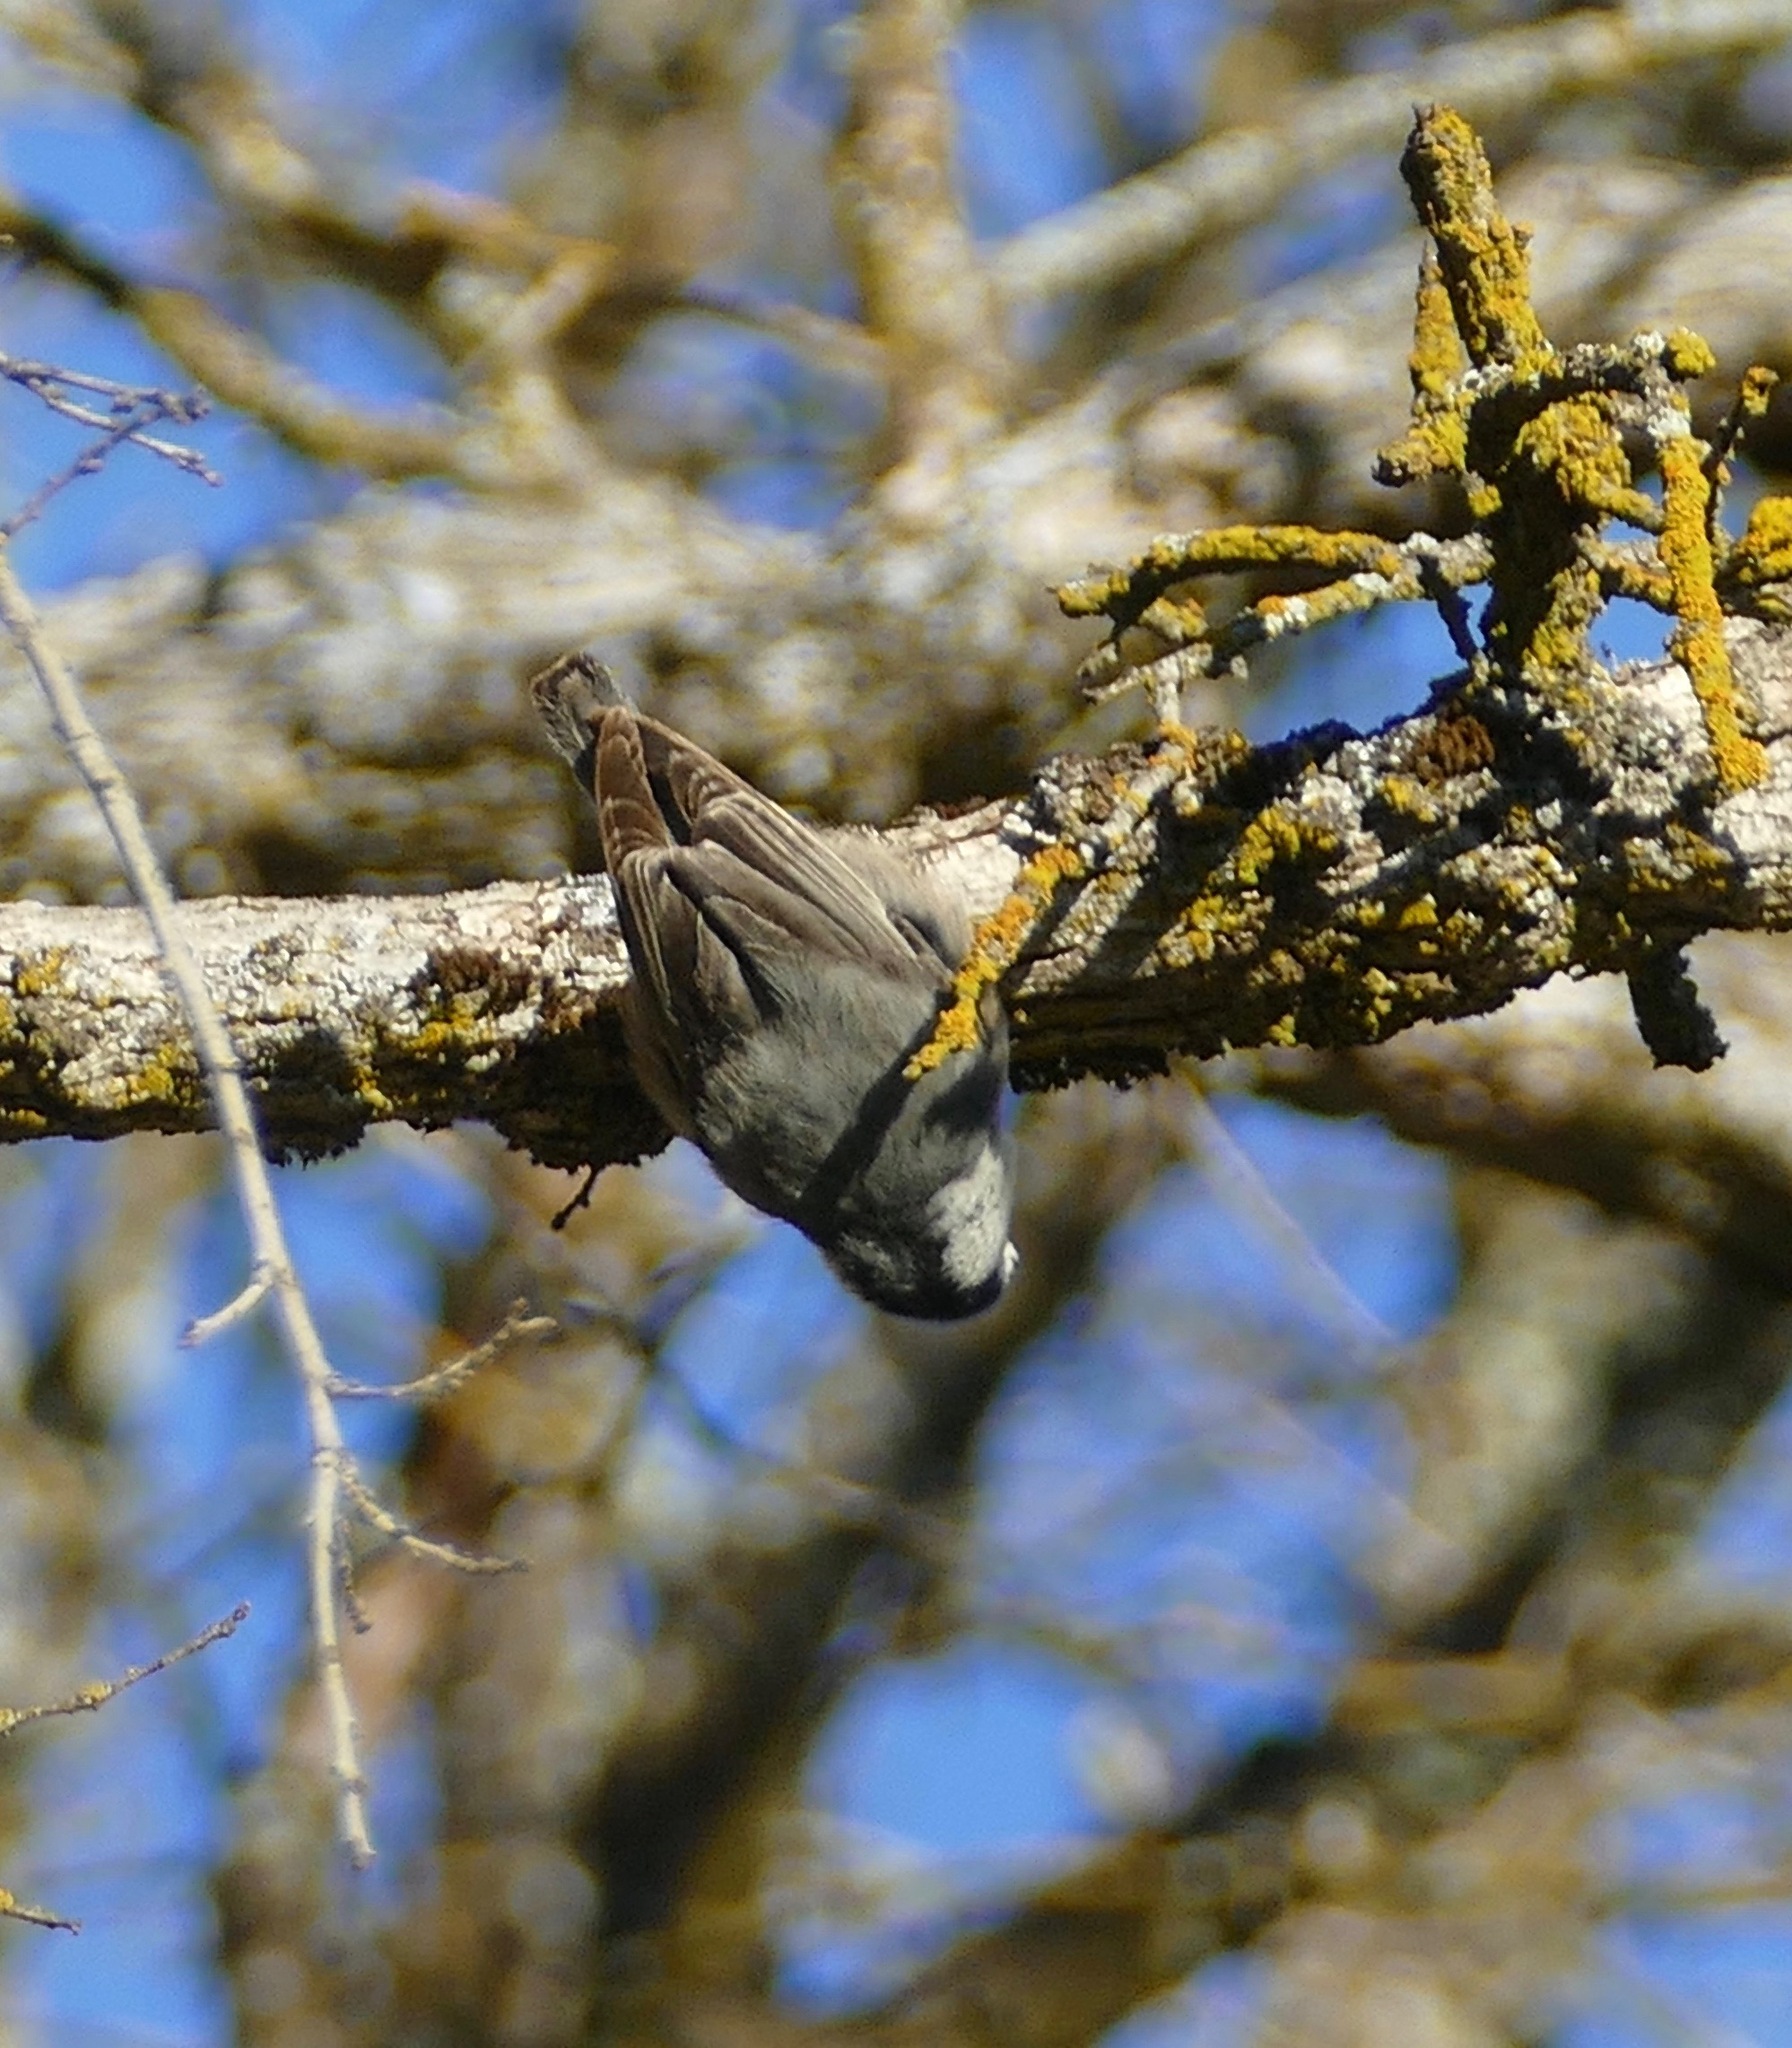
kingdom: Animalia
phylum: Chordata
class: Aves
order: Passeriformes
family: Sittidae
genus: Sitta
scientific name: Sitta carolinensis
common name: White-breasted nuthatch
